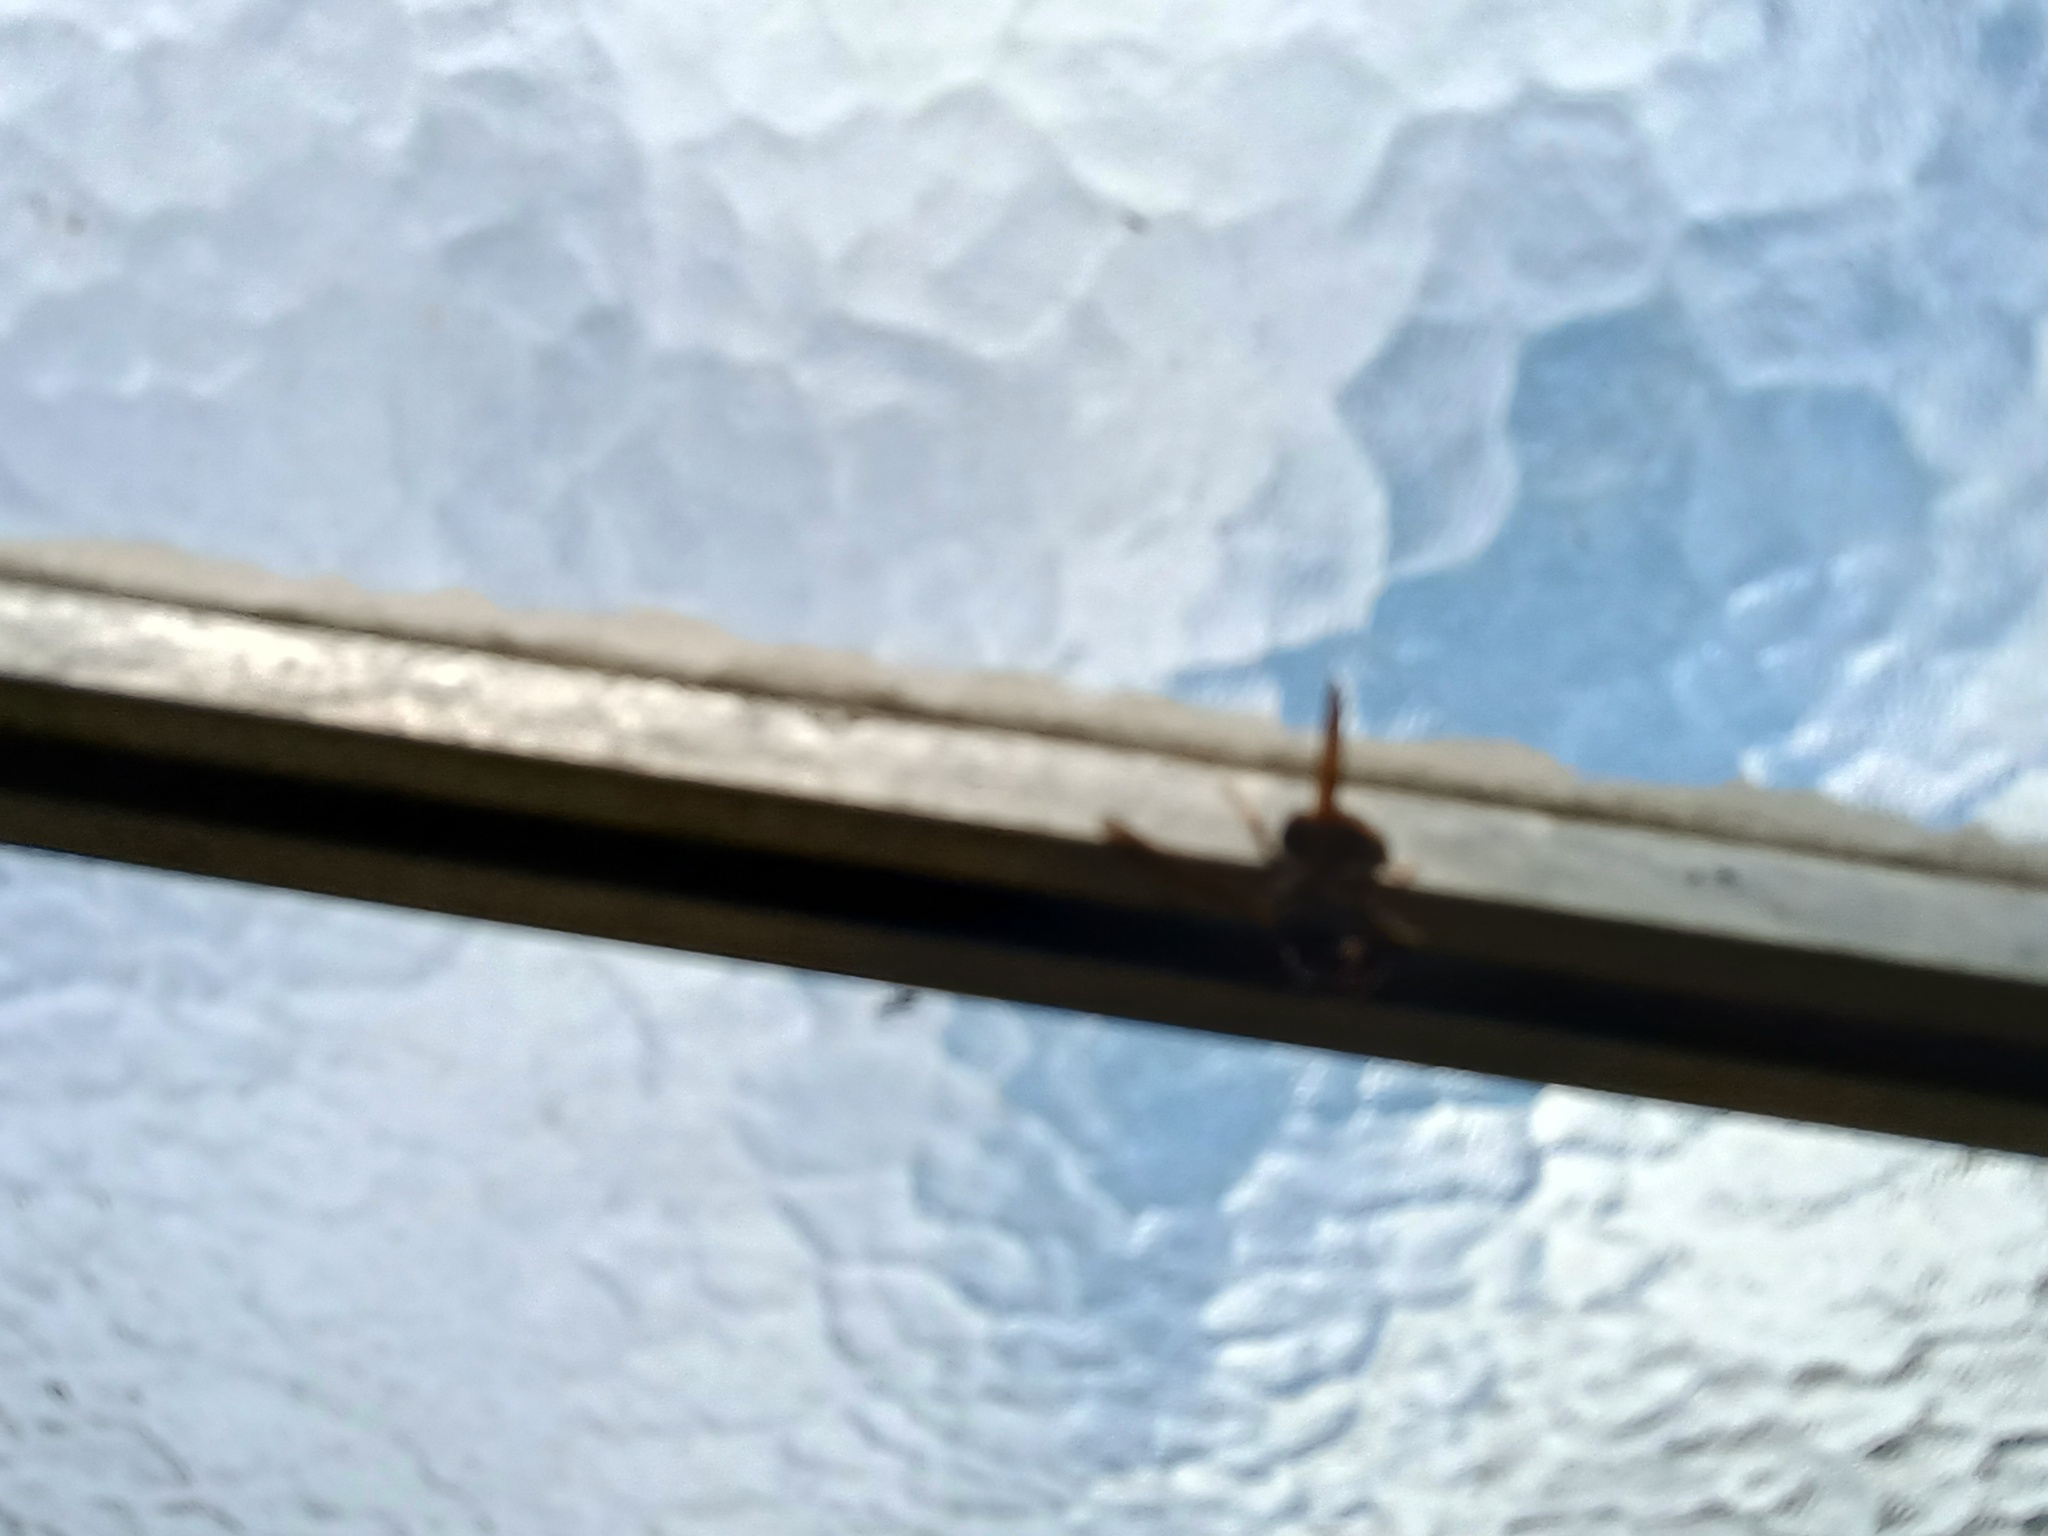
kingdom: Animalia
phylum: Arthropoda
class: Insecta
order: Hymenoptera
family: Vespidae
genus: Vespa
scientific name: Vespa velutina
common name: Asian hornet
